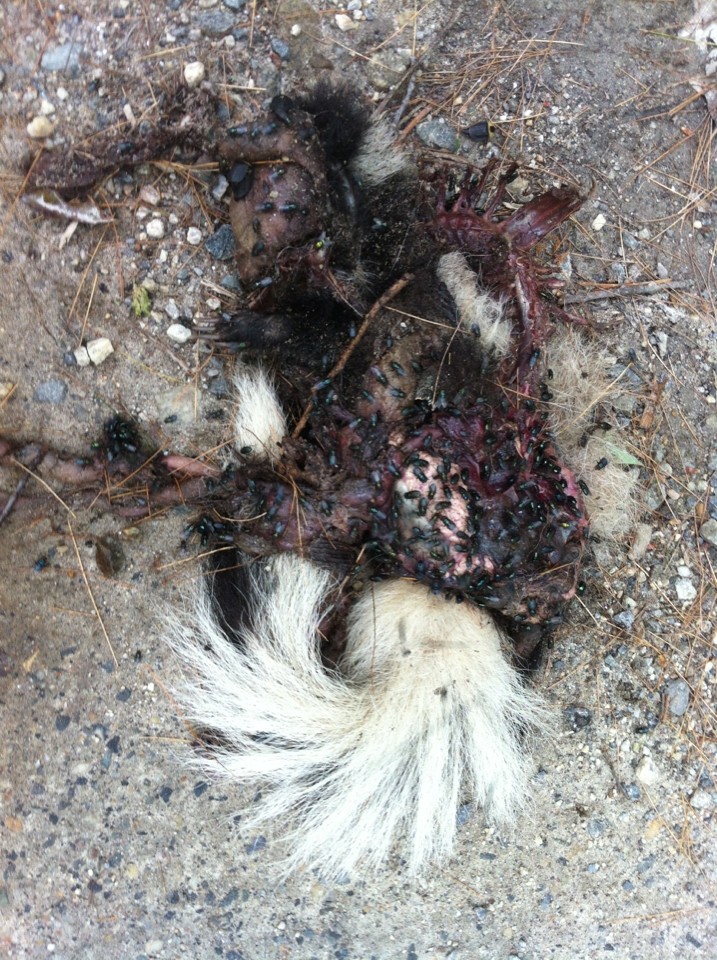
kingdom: Animalia
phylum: Chordata
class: Mammalia
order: Carnivora
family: Mephitidae
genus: Mephitis
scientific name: Mephitis mephitis
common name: Striped skunk
